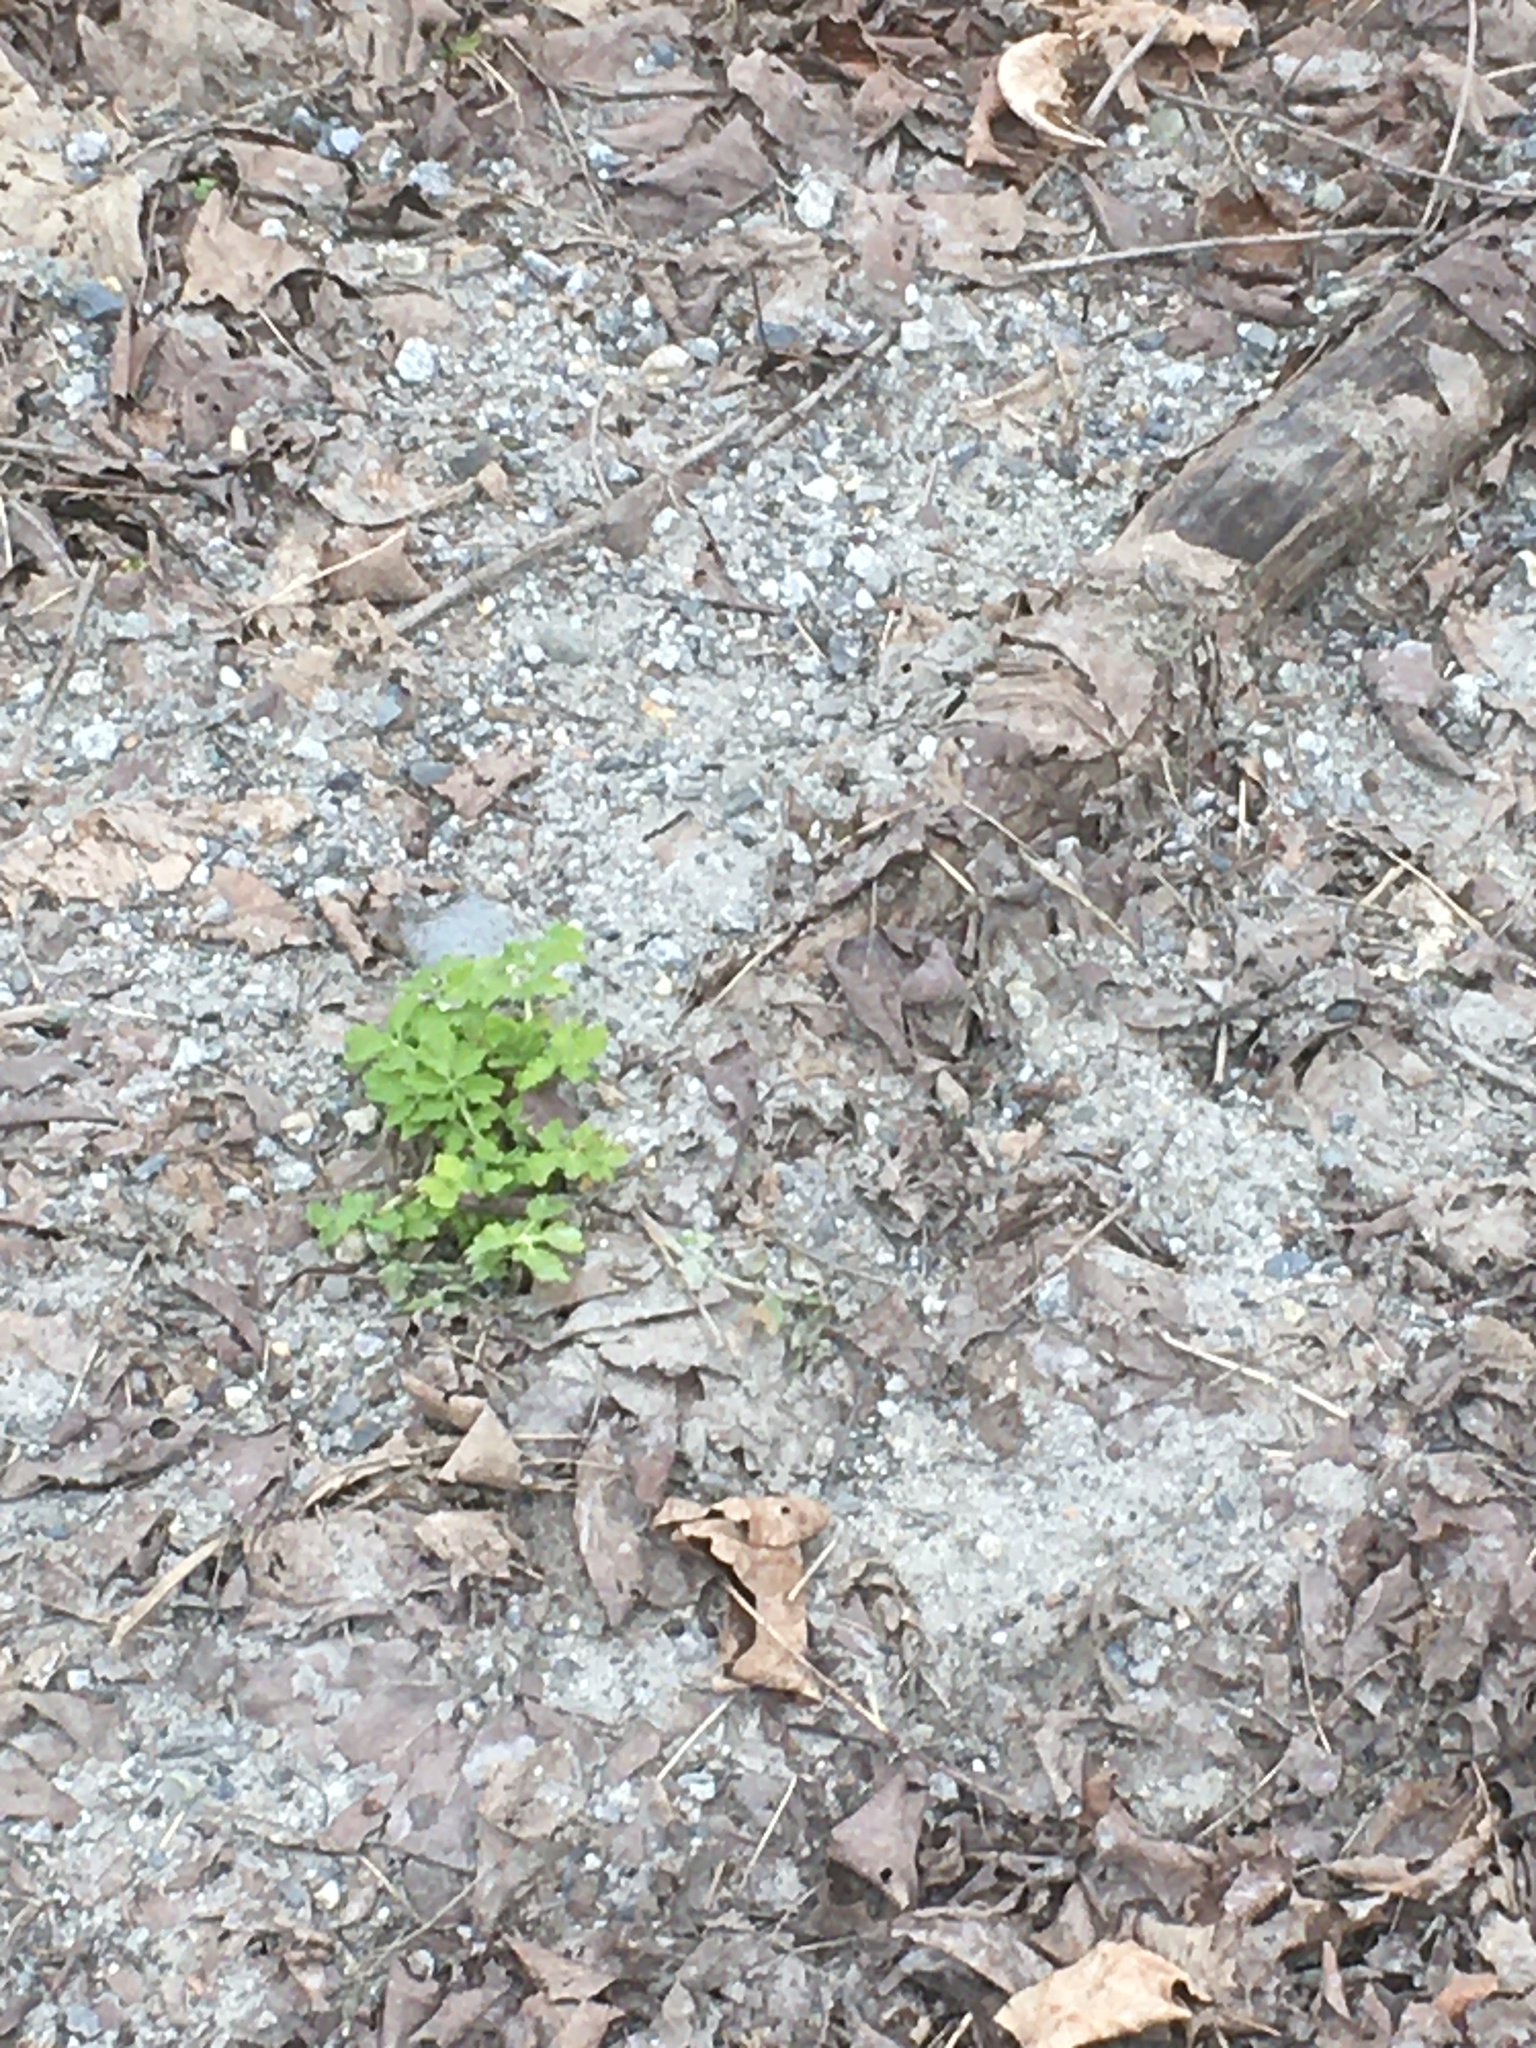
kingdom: Plantae
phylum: Tracheophyta
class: Magnoliopsida
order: Ranunculales
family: Papaveraceae
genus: Chelidonium
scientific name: Chelidonium majus
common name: Greater celandine
